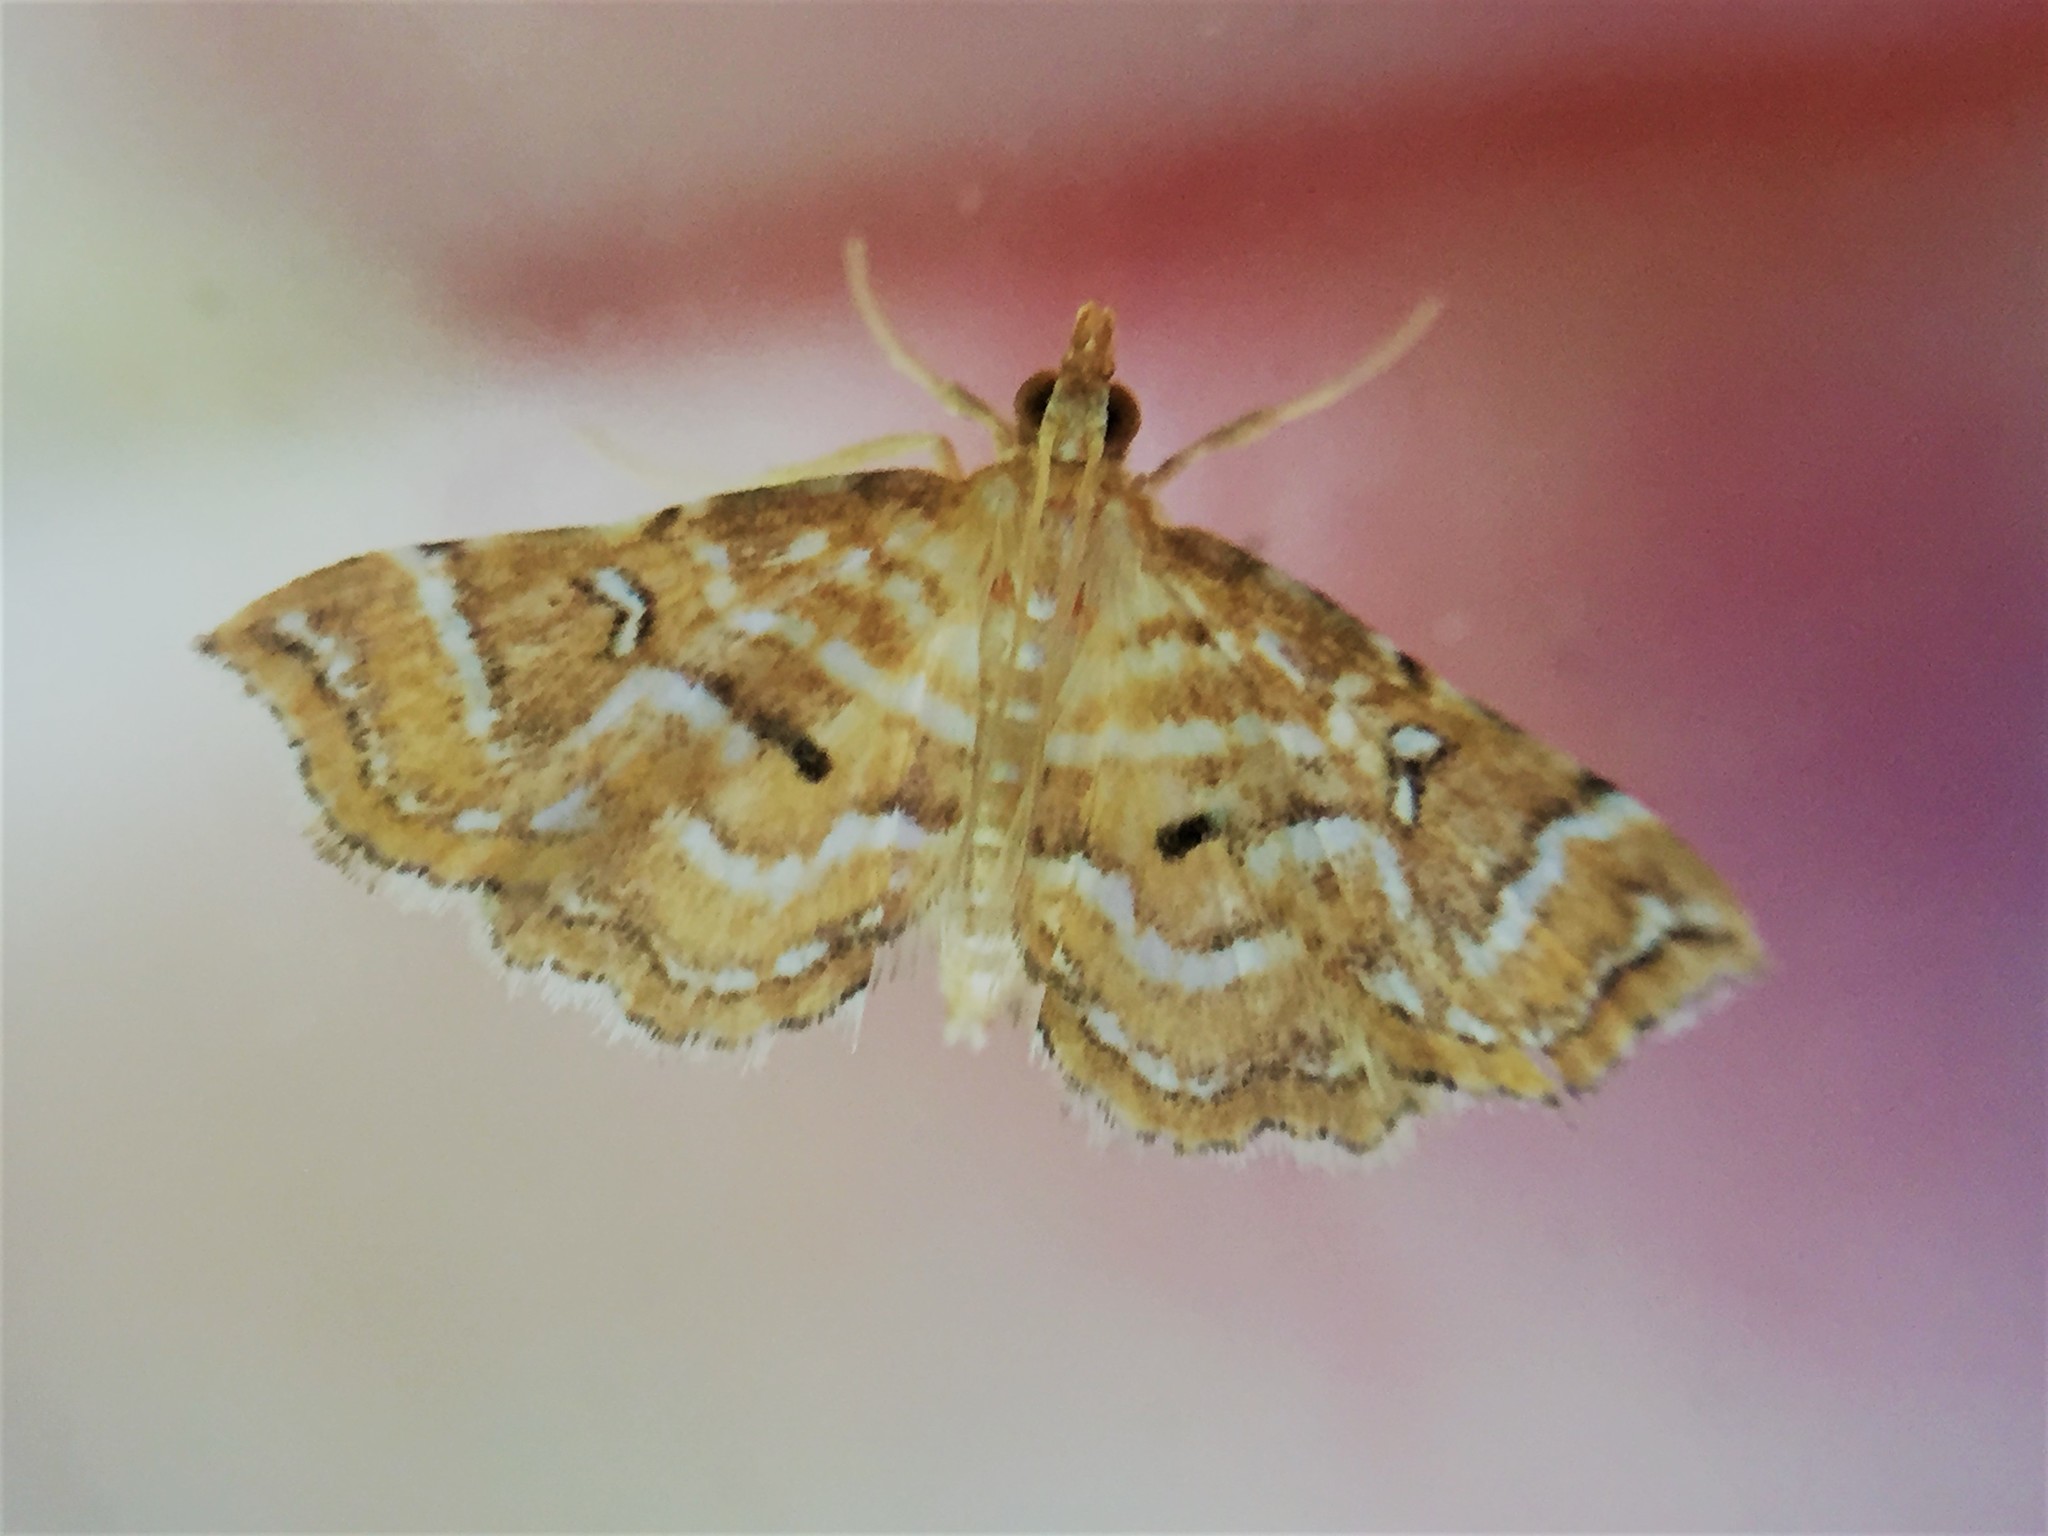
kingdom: Animalia
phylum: Arthropoda
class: Insecta
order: Lepidoptera
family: Pyralidae
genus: Musotima
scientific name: Musotima ochropteralis
